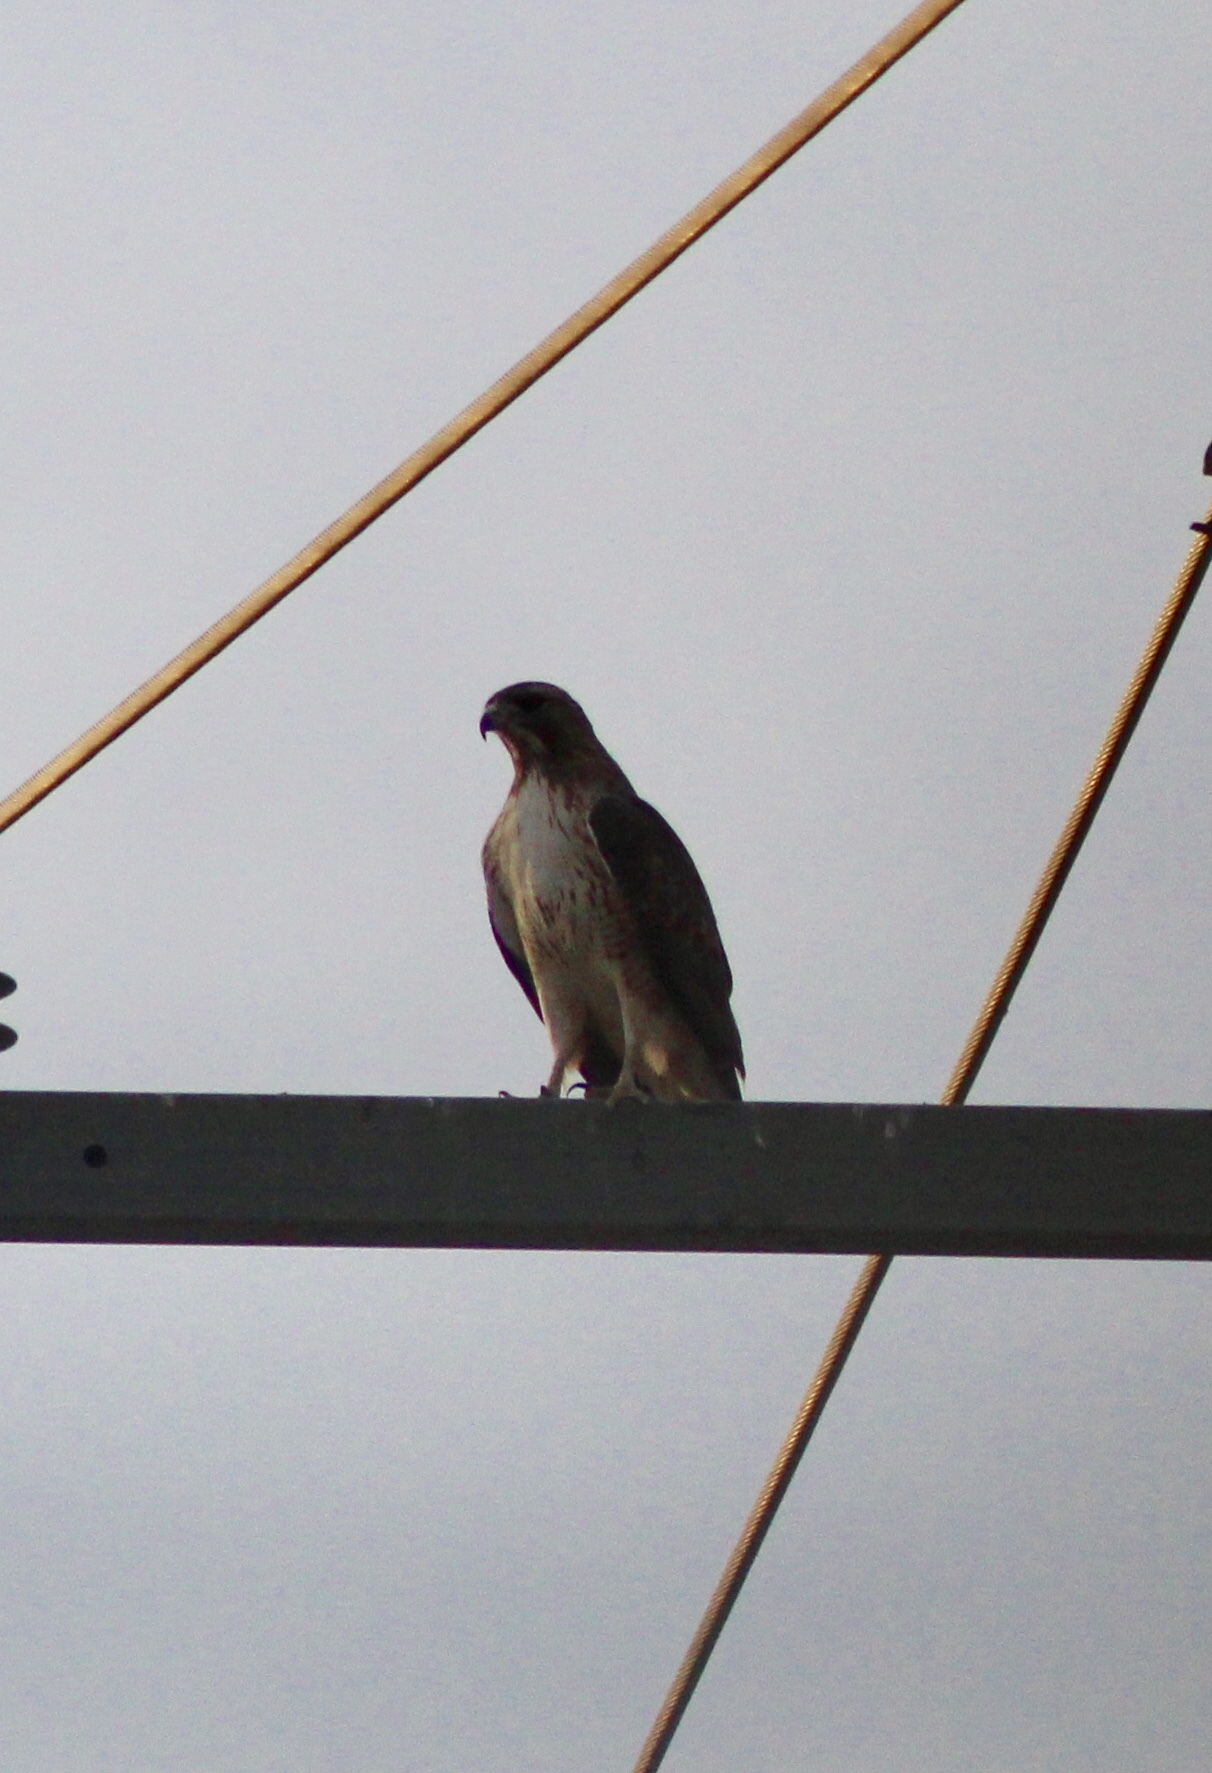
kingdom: Animalia
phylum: Chordata
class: Aves
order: Accipitriformes
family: Accipitridae
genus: Buteo
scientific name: Buteo jamaicensis
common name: Red-tailed hawk
